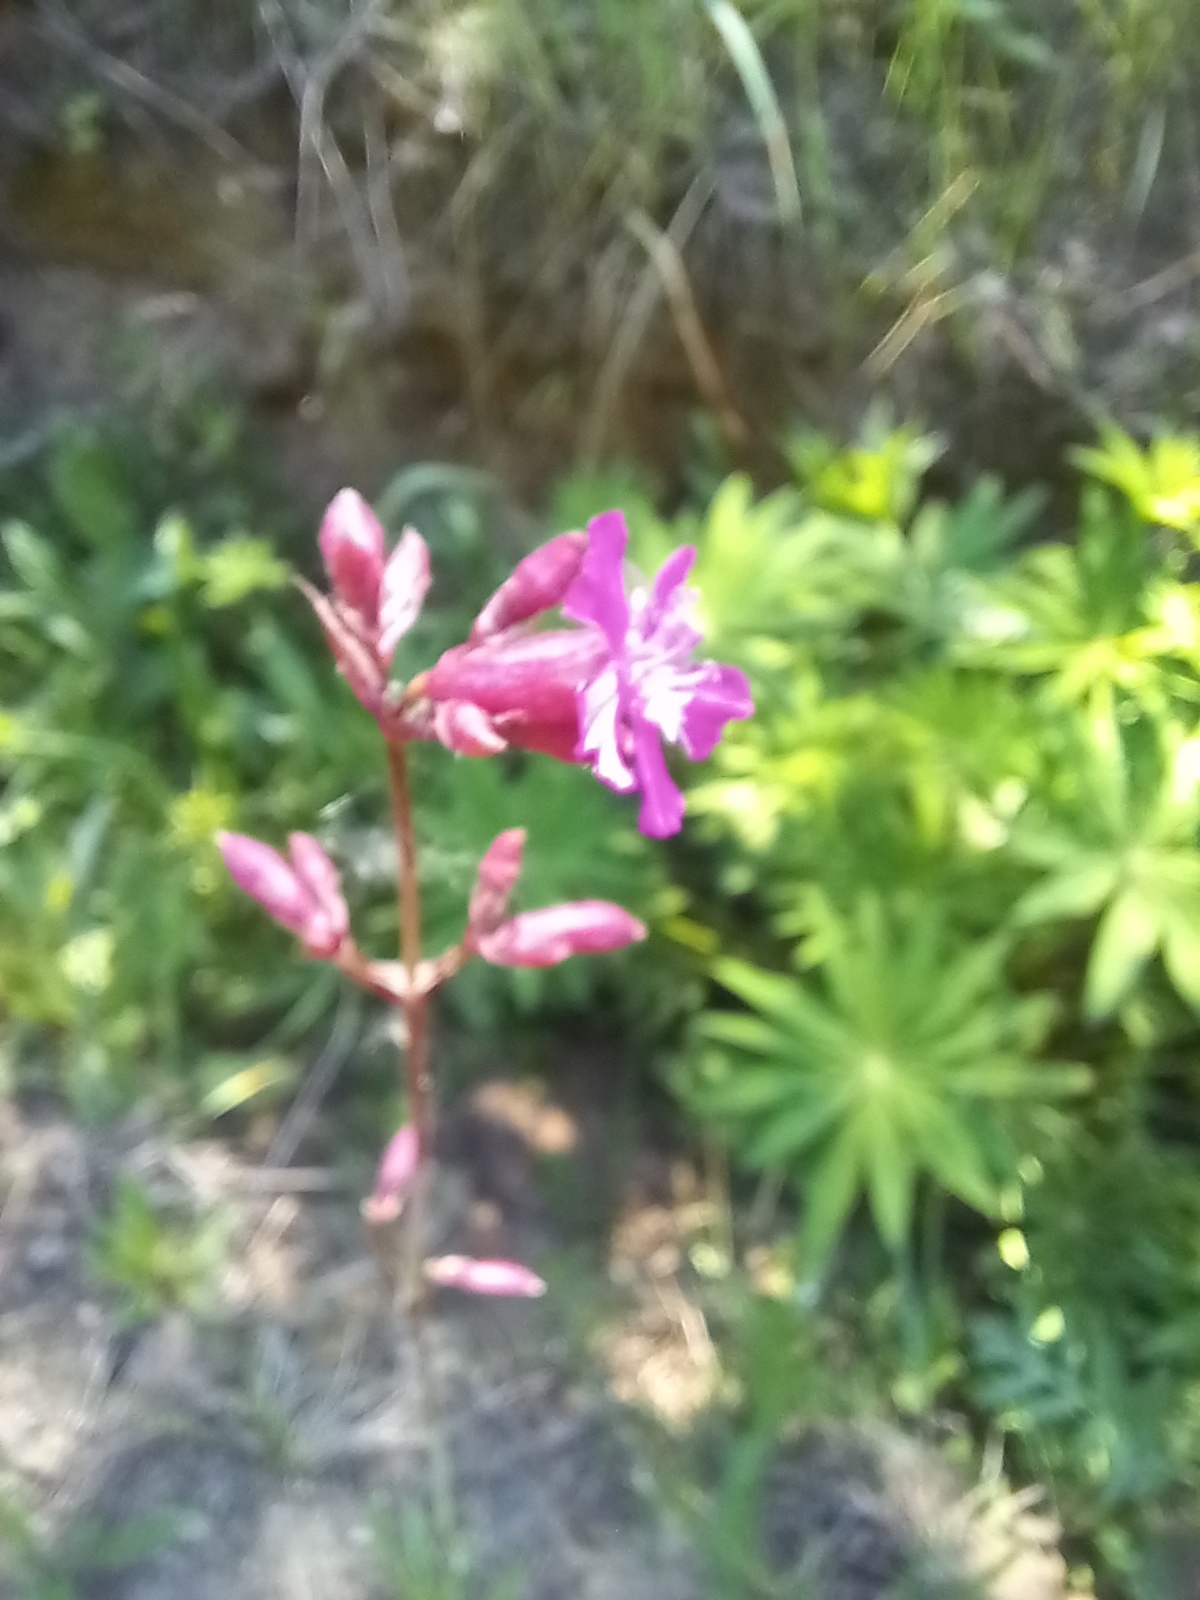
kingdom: Plantae
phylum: Tracheophyta
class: Magnoliopsida
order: Caryophyllales
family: Caryophyllaceae
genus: Viscaria
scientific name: Viscaria vulgaris
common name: Clammy campion
